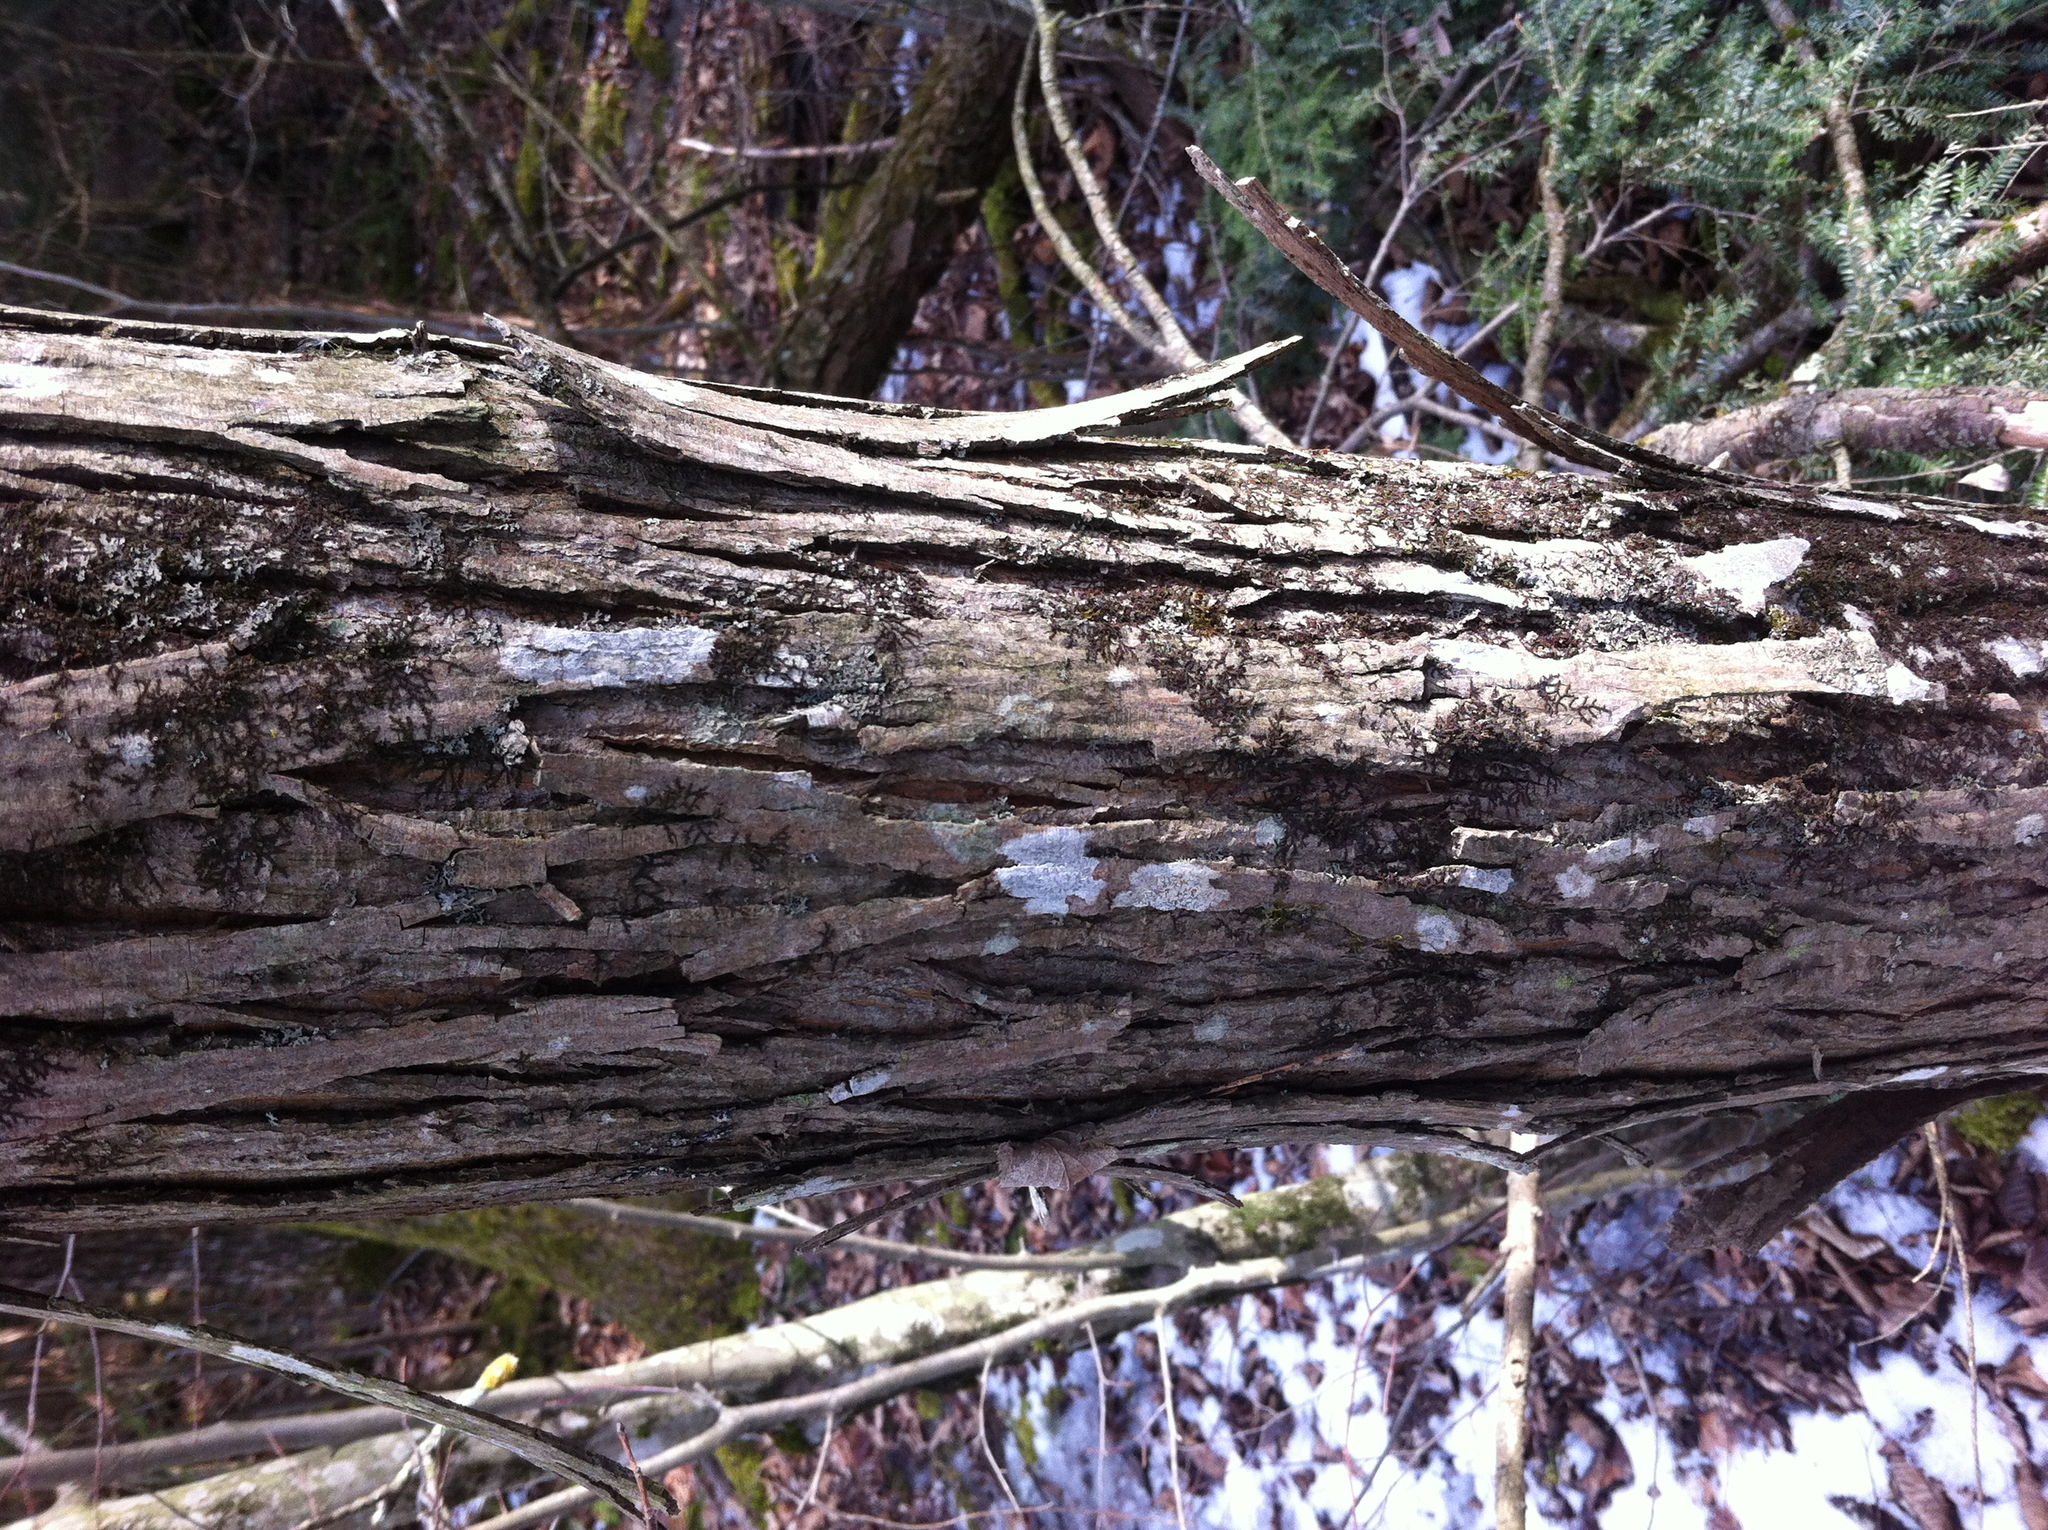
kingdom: Plantae
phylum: Tracheophyta
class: Magnoliopsida
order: Fagales
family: Juglandaceae
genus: Carya
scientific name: Carya ovata
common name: Shagbark hickory
